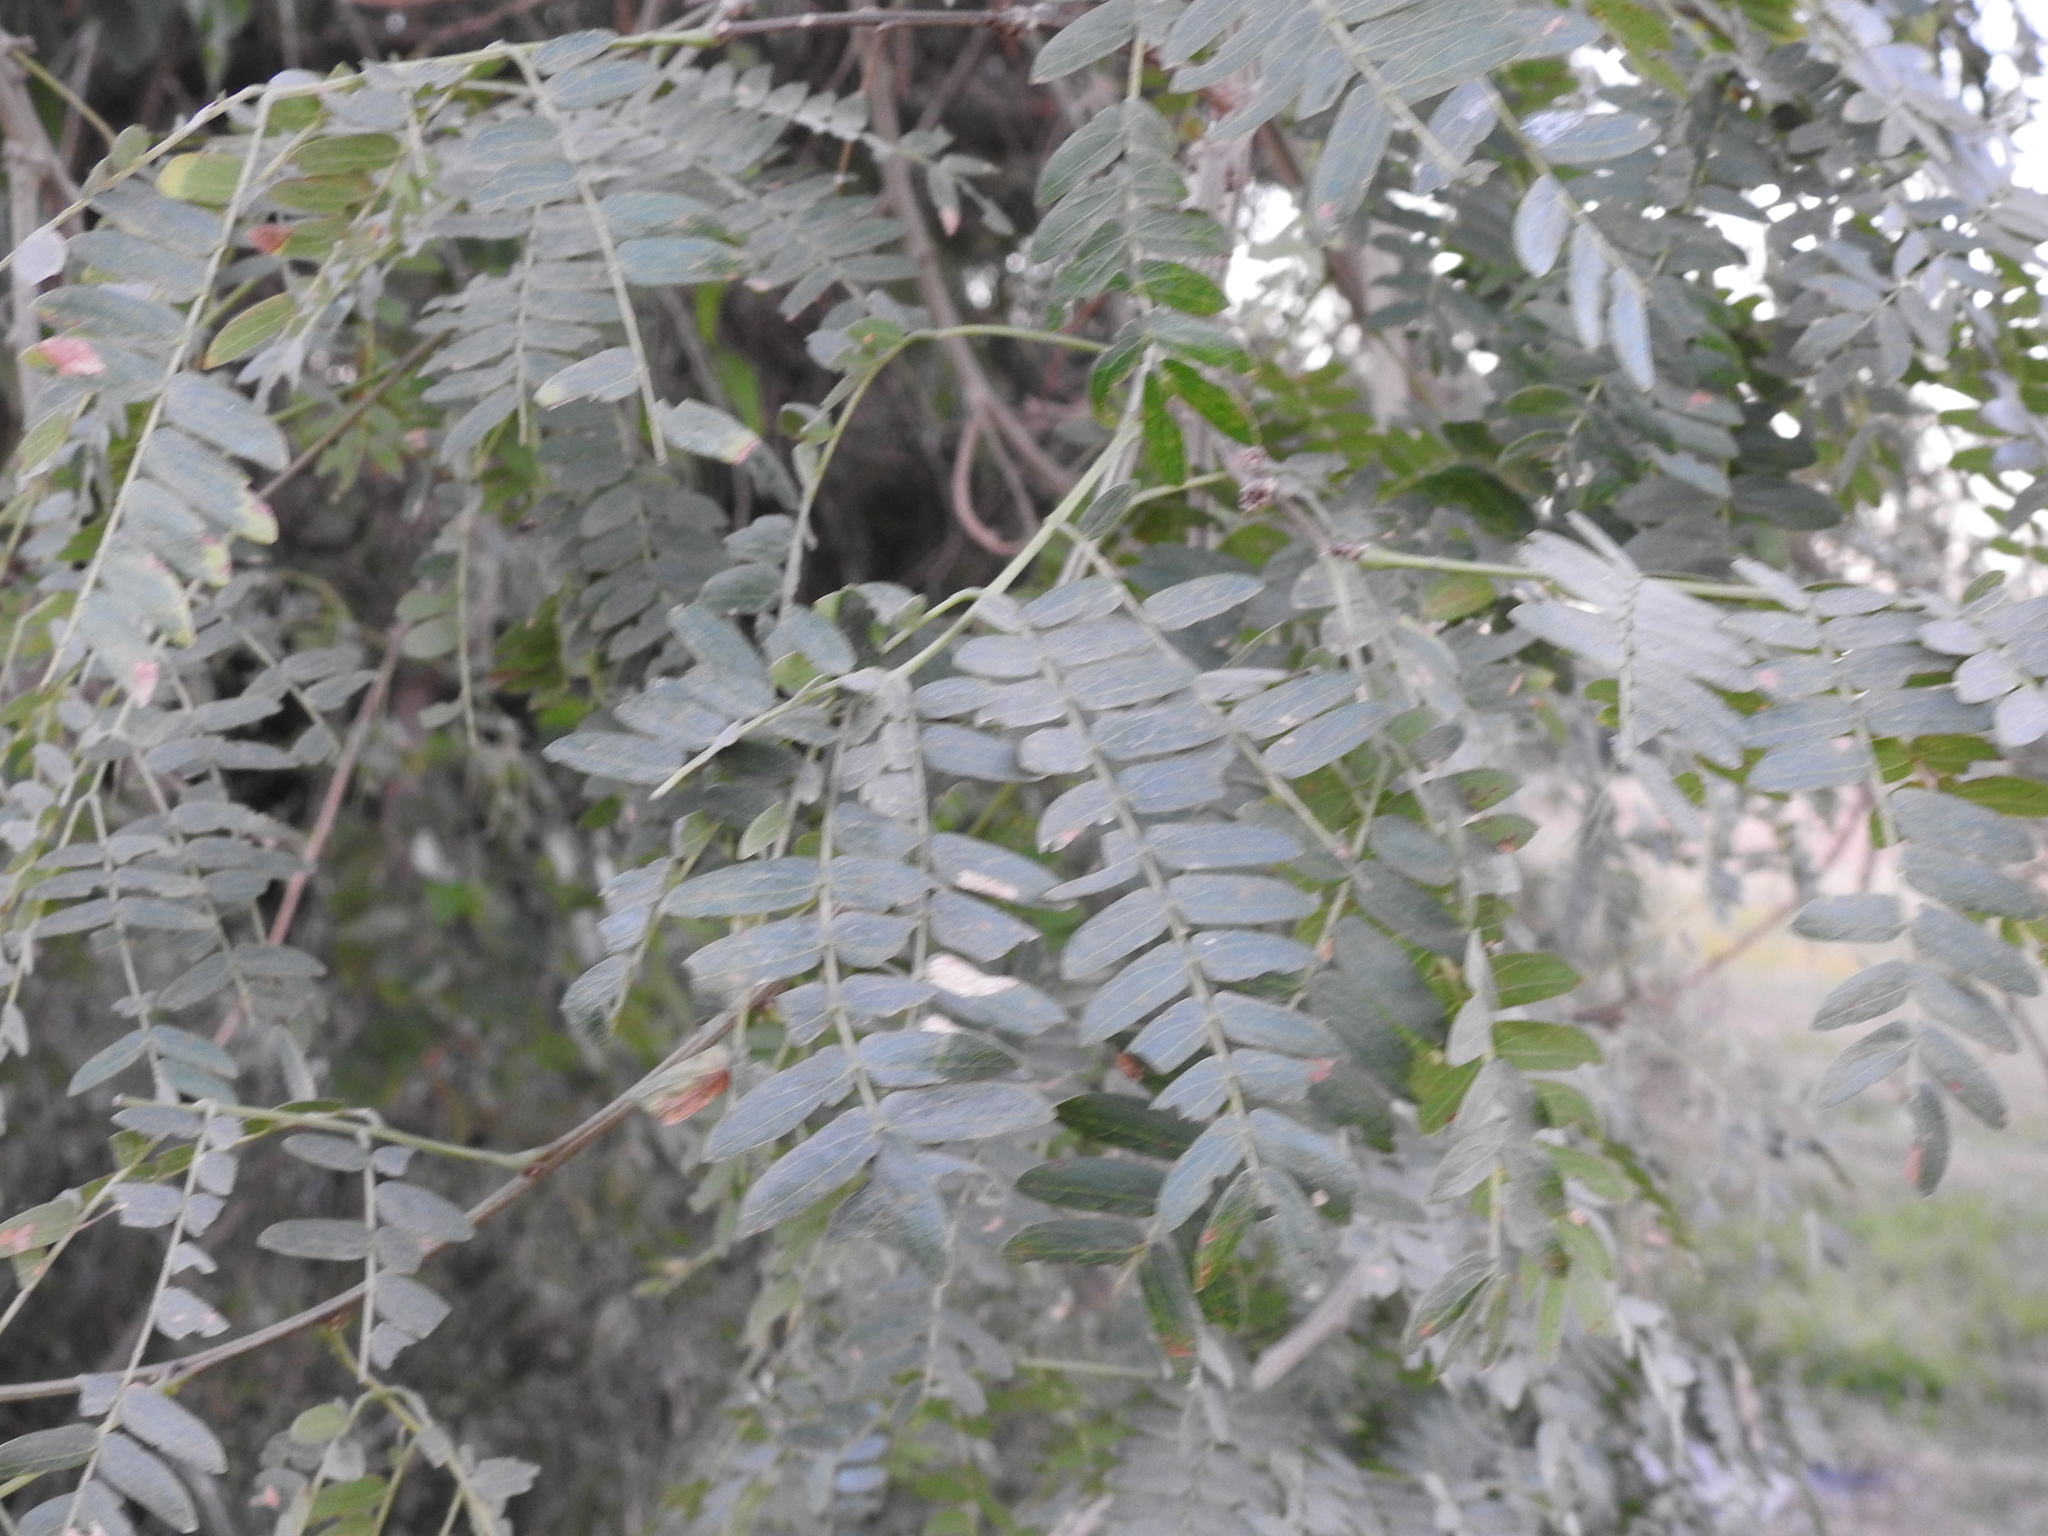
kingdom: Plantae
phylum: Tracheophyta
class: Magnoliopsida
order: Fabales
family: Fabaceae
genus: Albizia
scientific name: Albizia inundata
